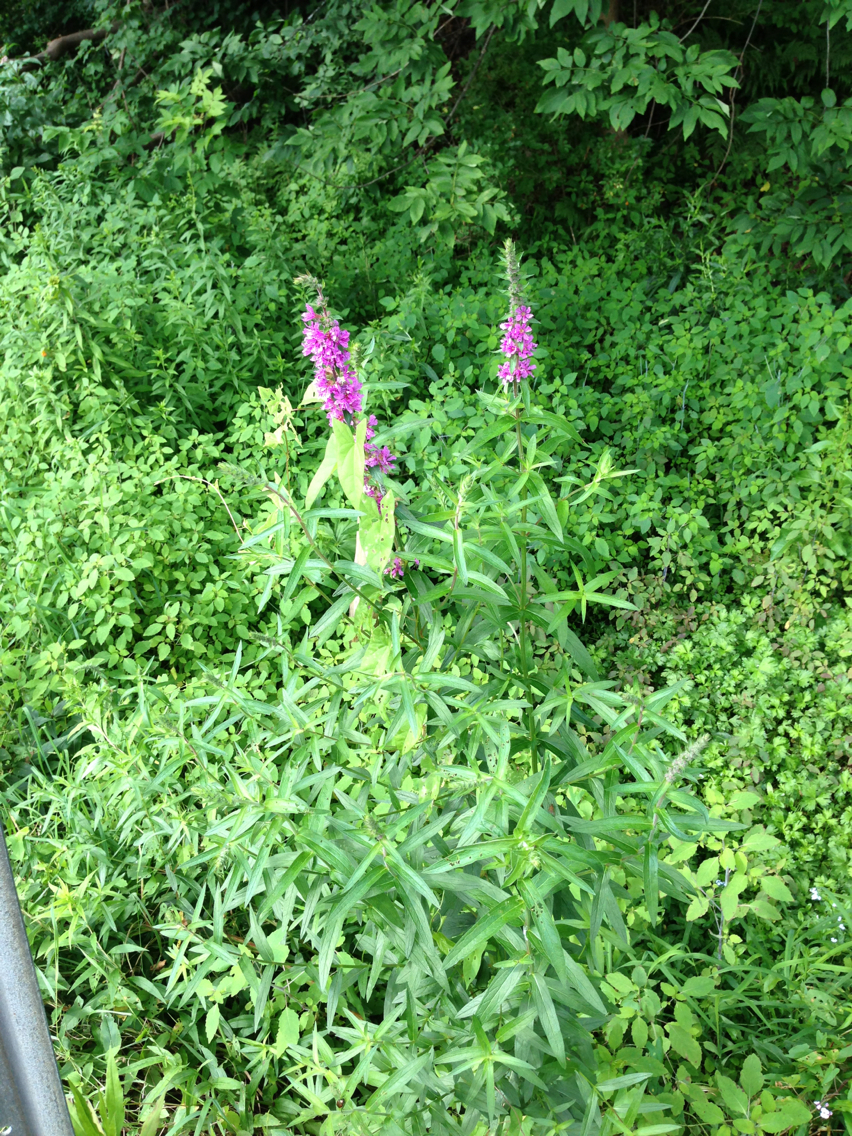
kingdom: Plantae
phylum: Tracheophyta
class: Magnoliopsida
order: Myrtales
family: Lythraceae
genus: Lythrum
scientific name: Lythrum salicaria
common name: Purple loosestrife
